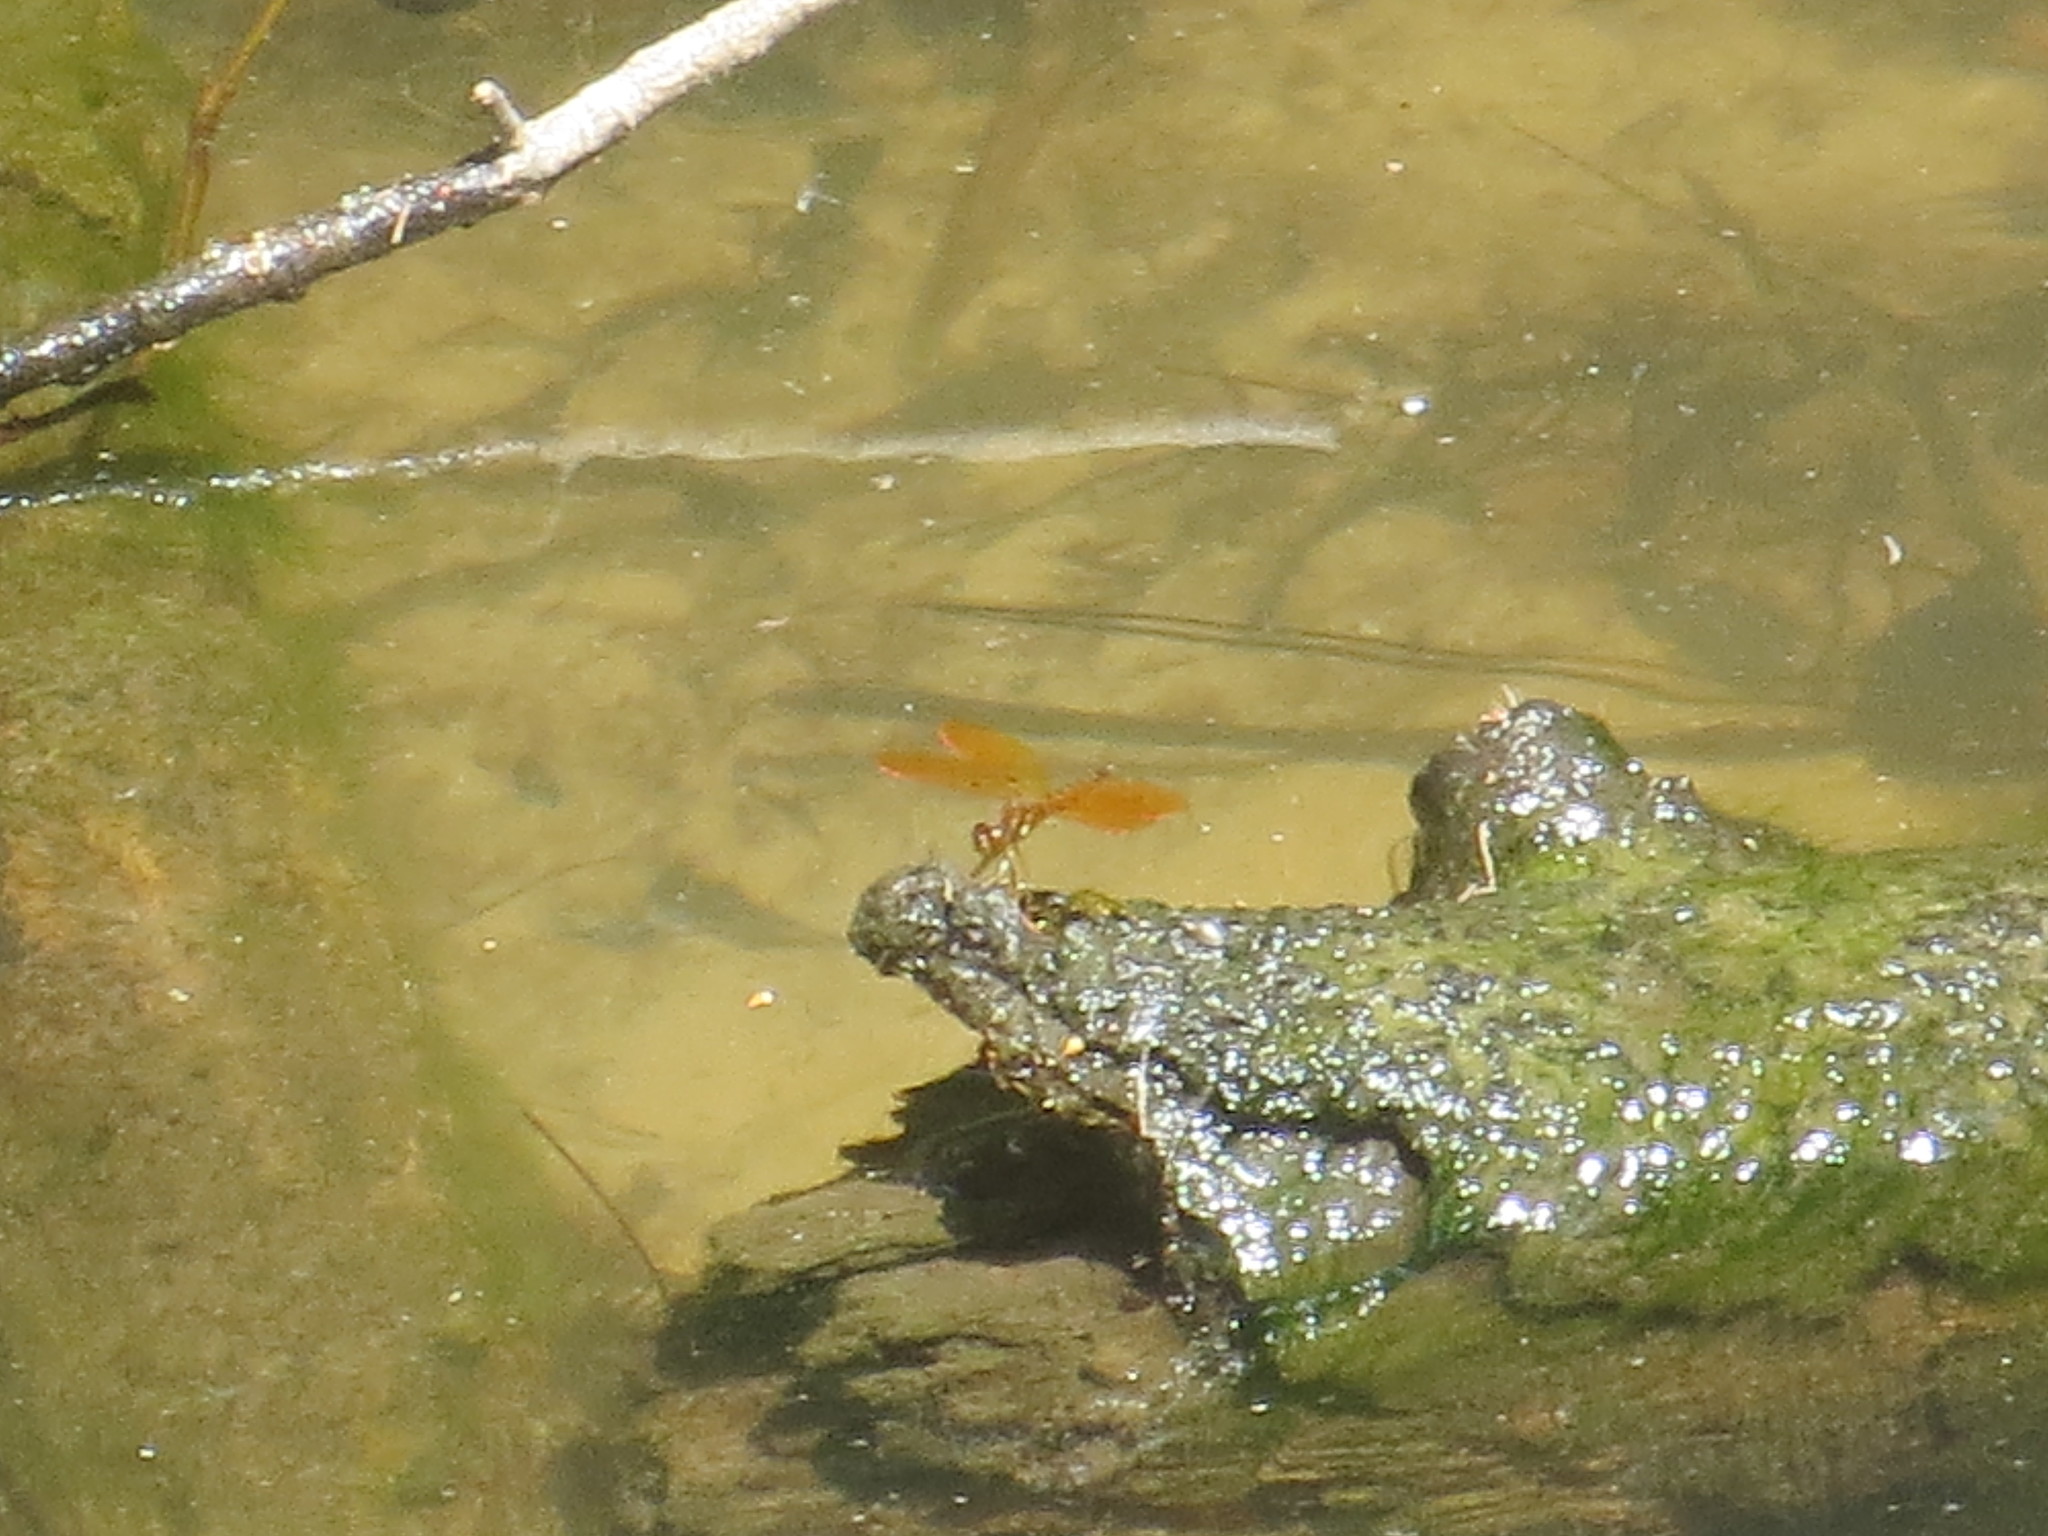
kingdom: Animalia
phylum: Arthropoda
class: Insecta
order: Odonata
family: Libellulidae
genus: Perithemis
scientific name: Perithemis tenera
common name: Eastern amberwing
